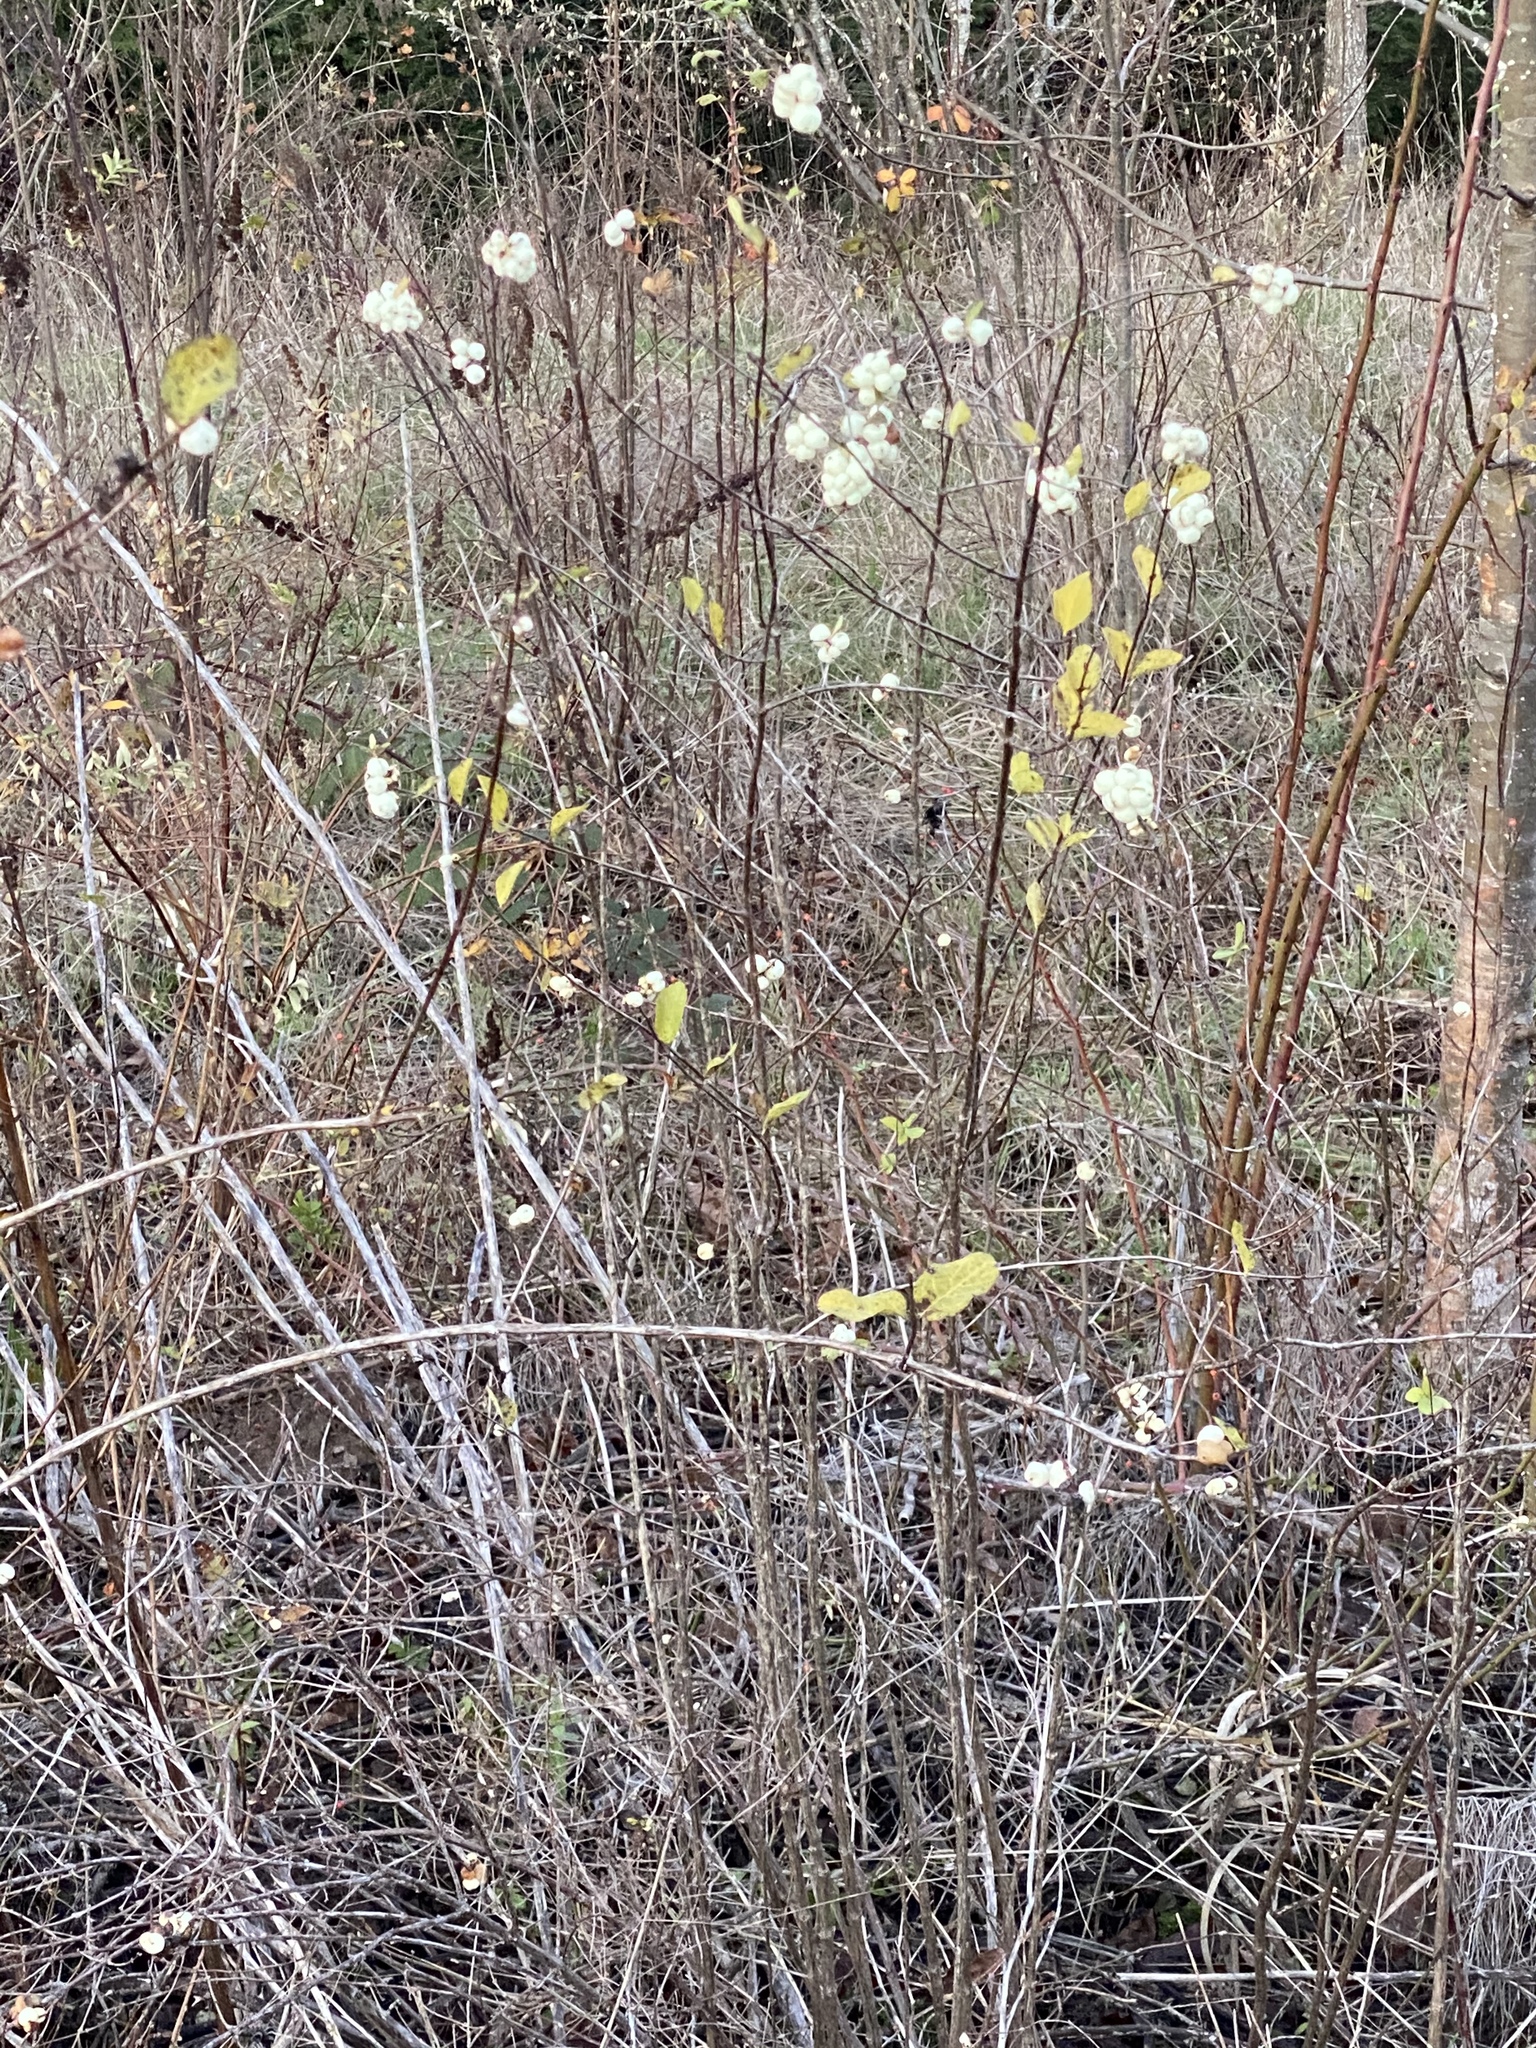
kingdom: Plantae
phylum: Tracheophyta
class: Magnoliopsida
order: Dipsacales
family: Caprifoliaceae
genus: Symphoricarpos
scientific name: Symphoricarpos albus
